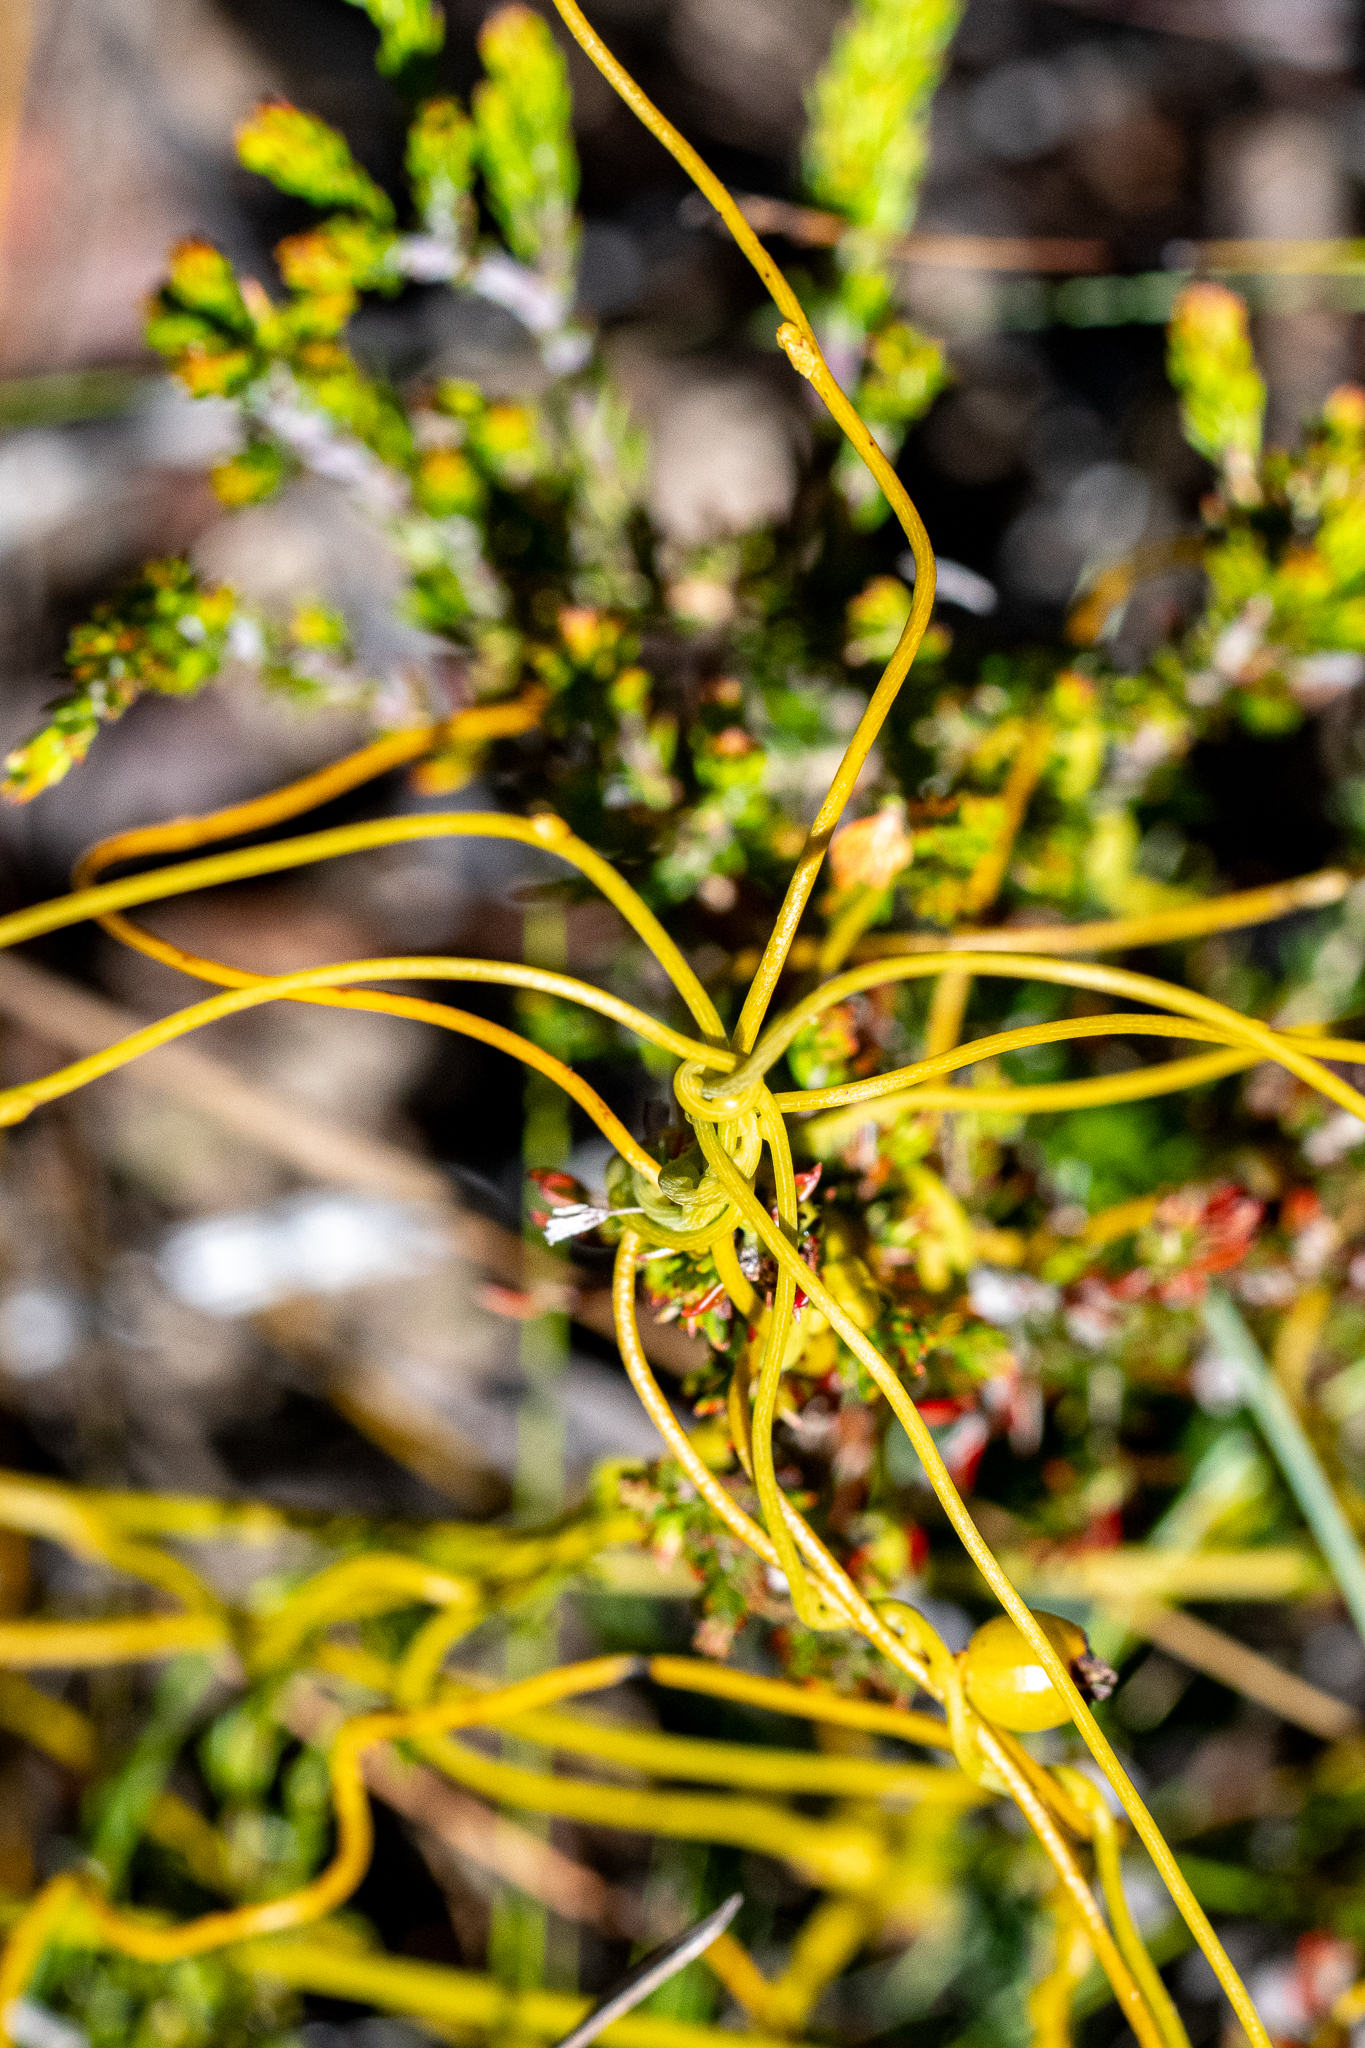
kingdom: Plantae
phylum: Tracheophyta
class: Magnoliopsida
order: Laurales
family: Lauraceae
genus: Cassytha
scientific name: Cassytha ciliolata
